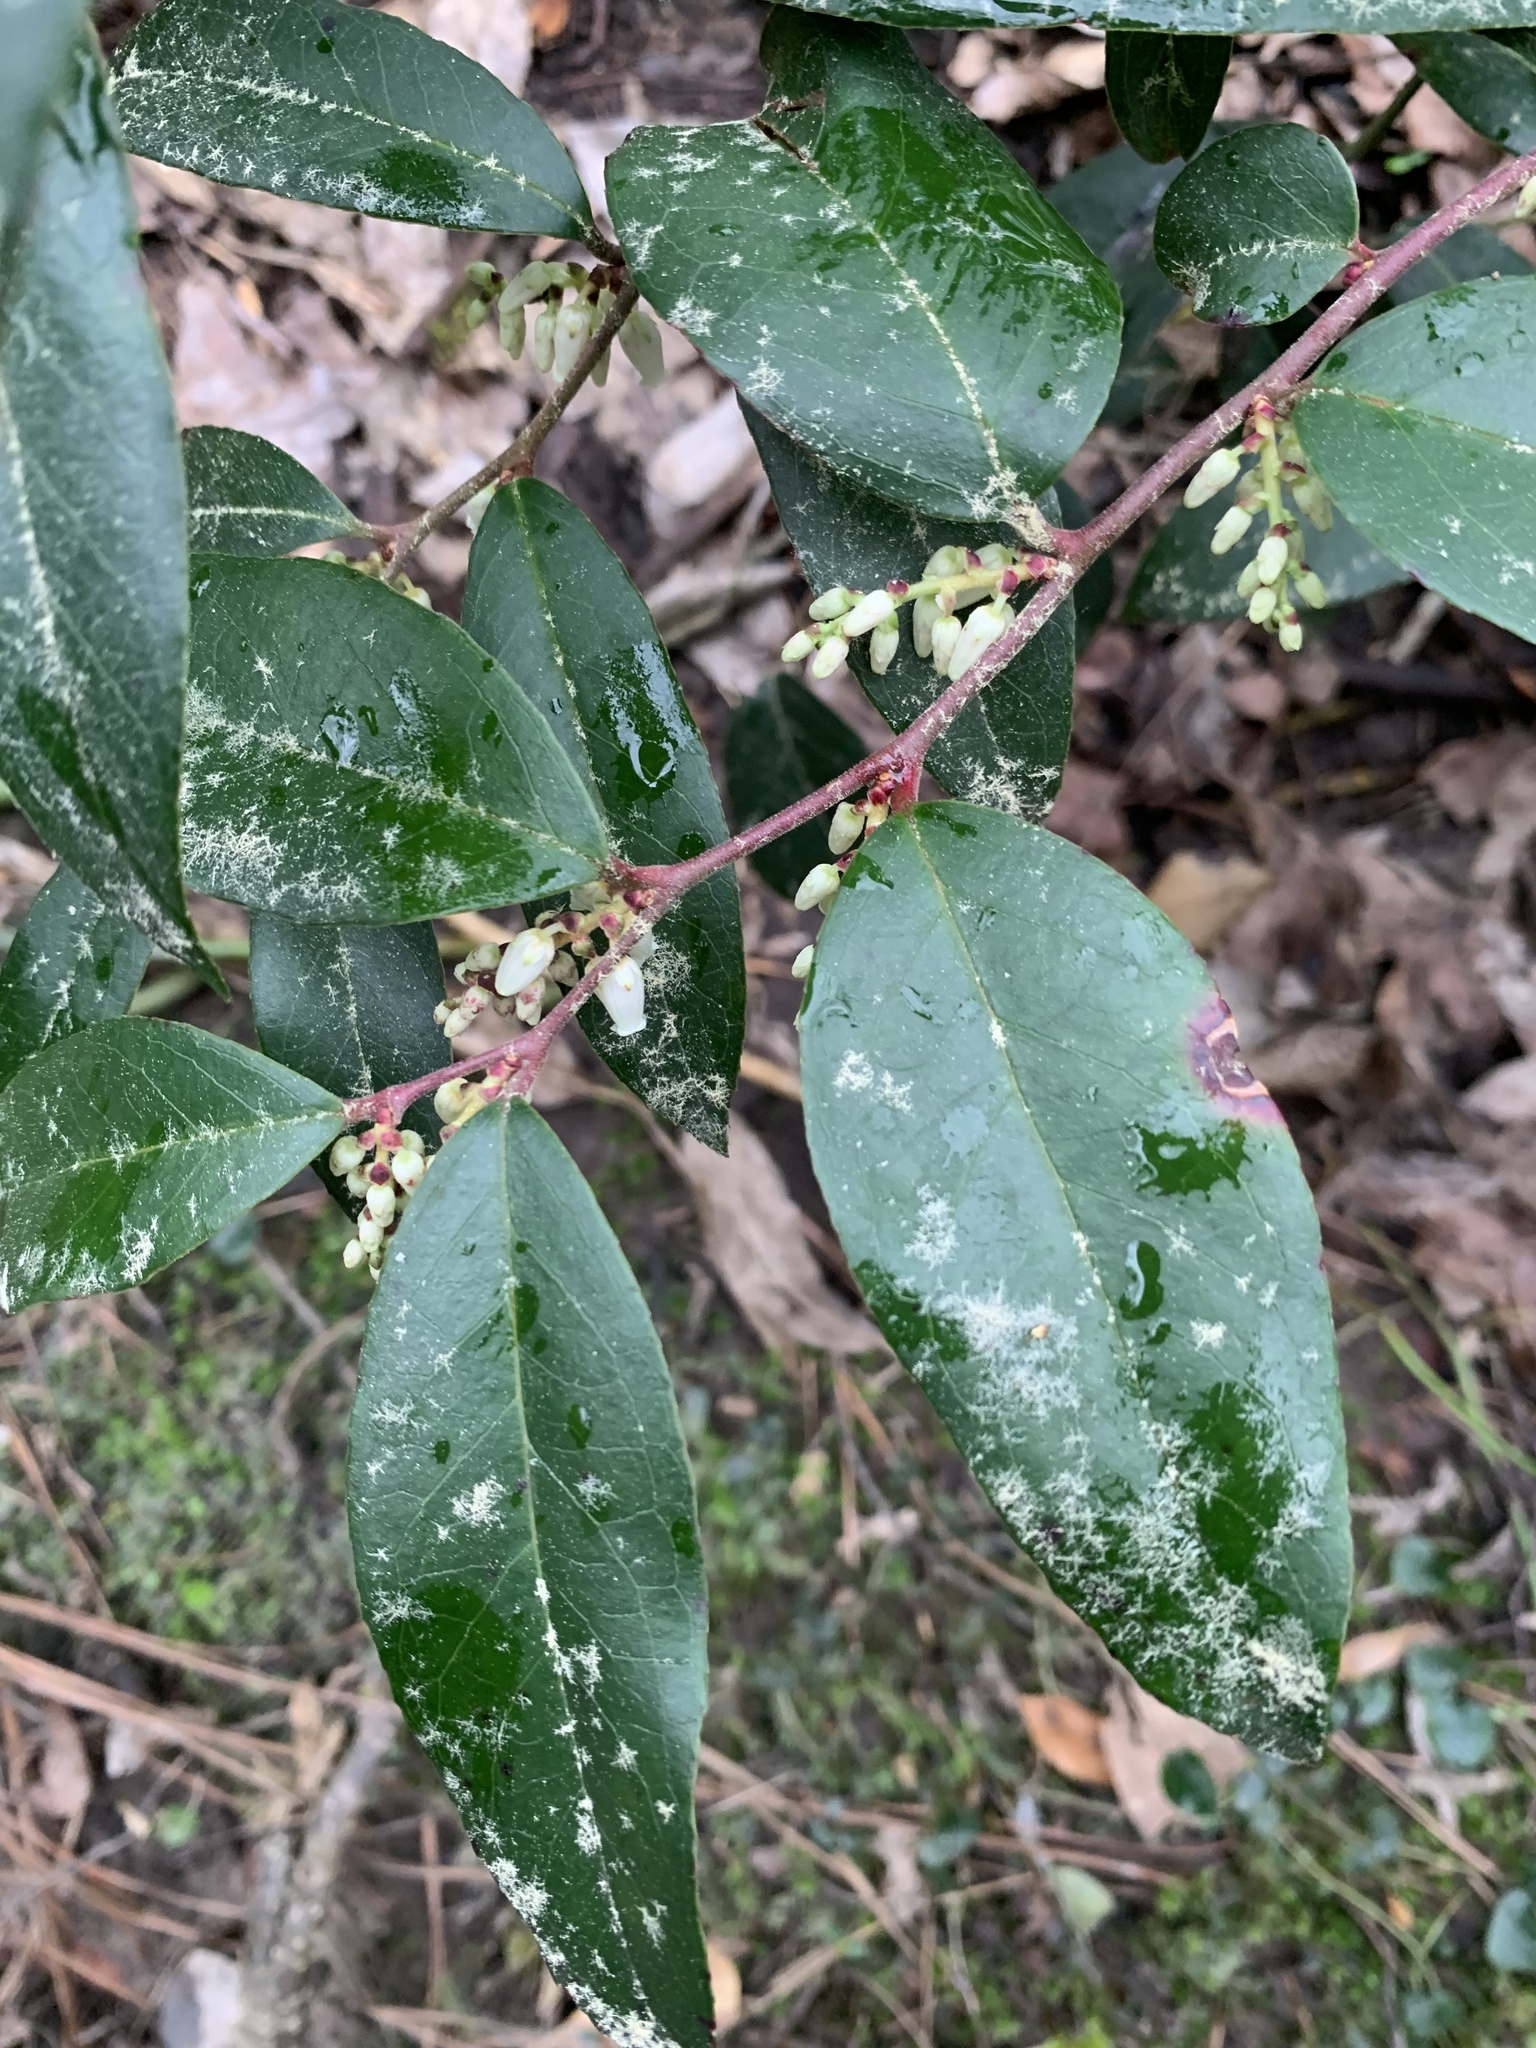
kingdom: Plantae
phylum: Tracheophyta
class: Magnoliopsida
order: Ericales
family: Ericaceae
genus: Leucothoe
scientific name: Leucothoe axillaris
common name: Leucothoe
